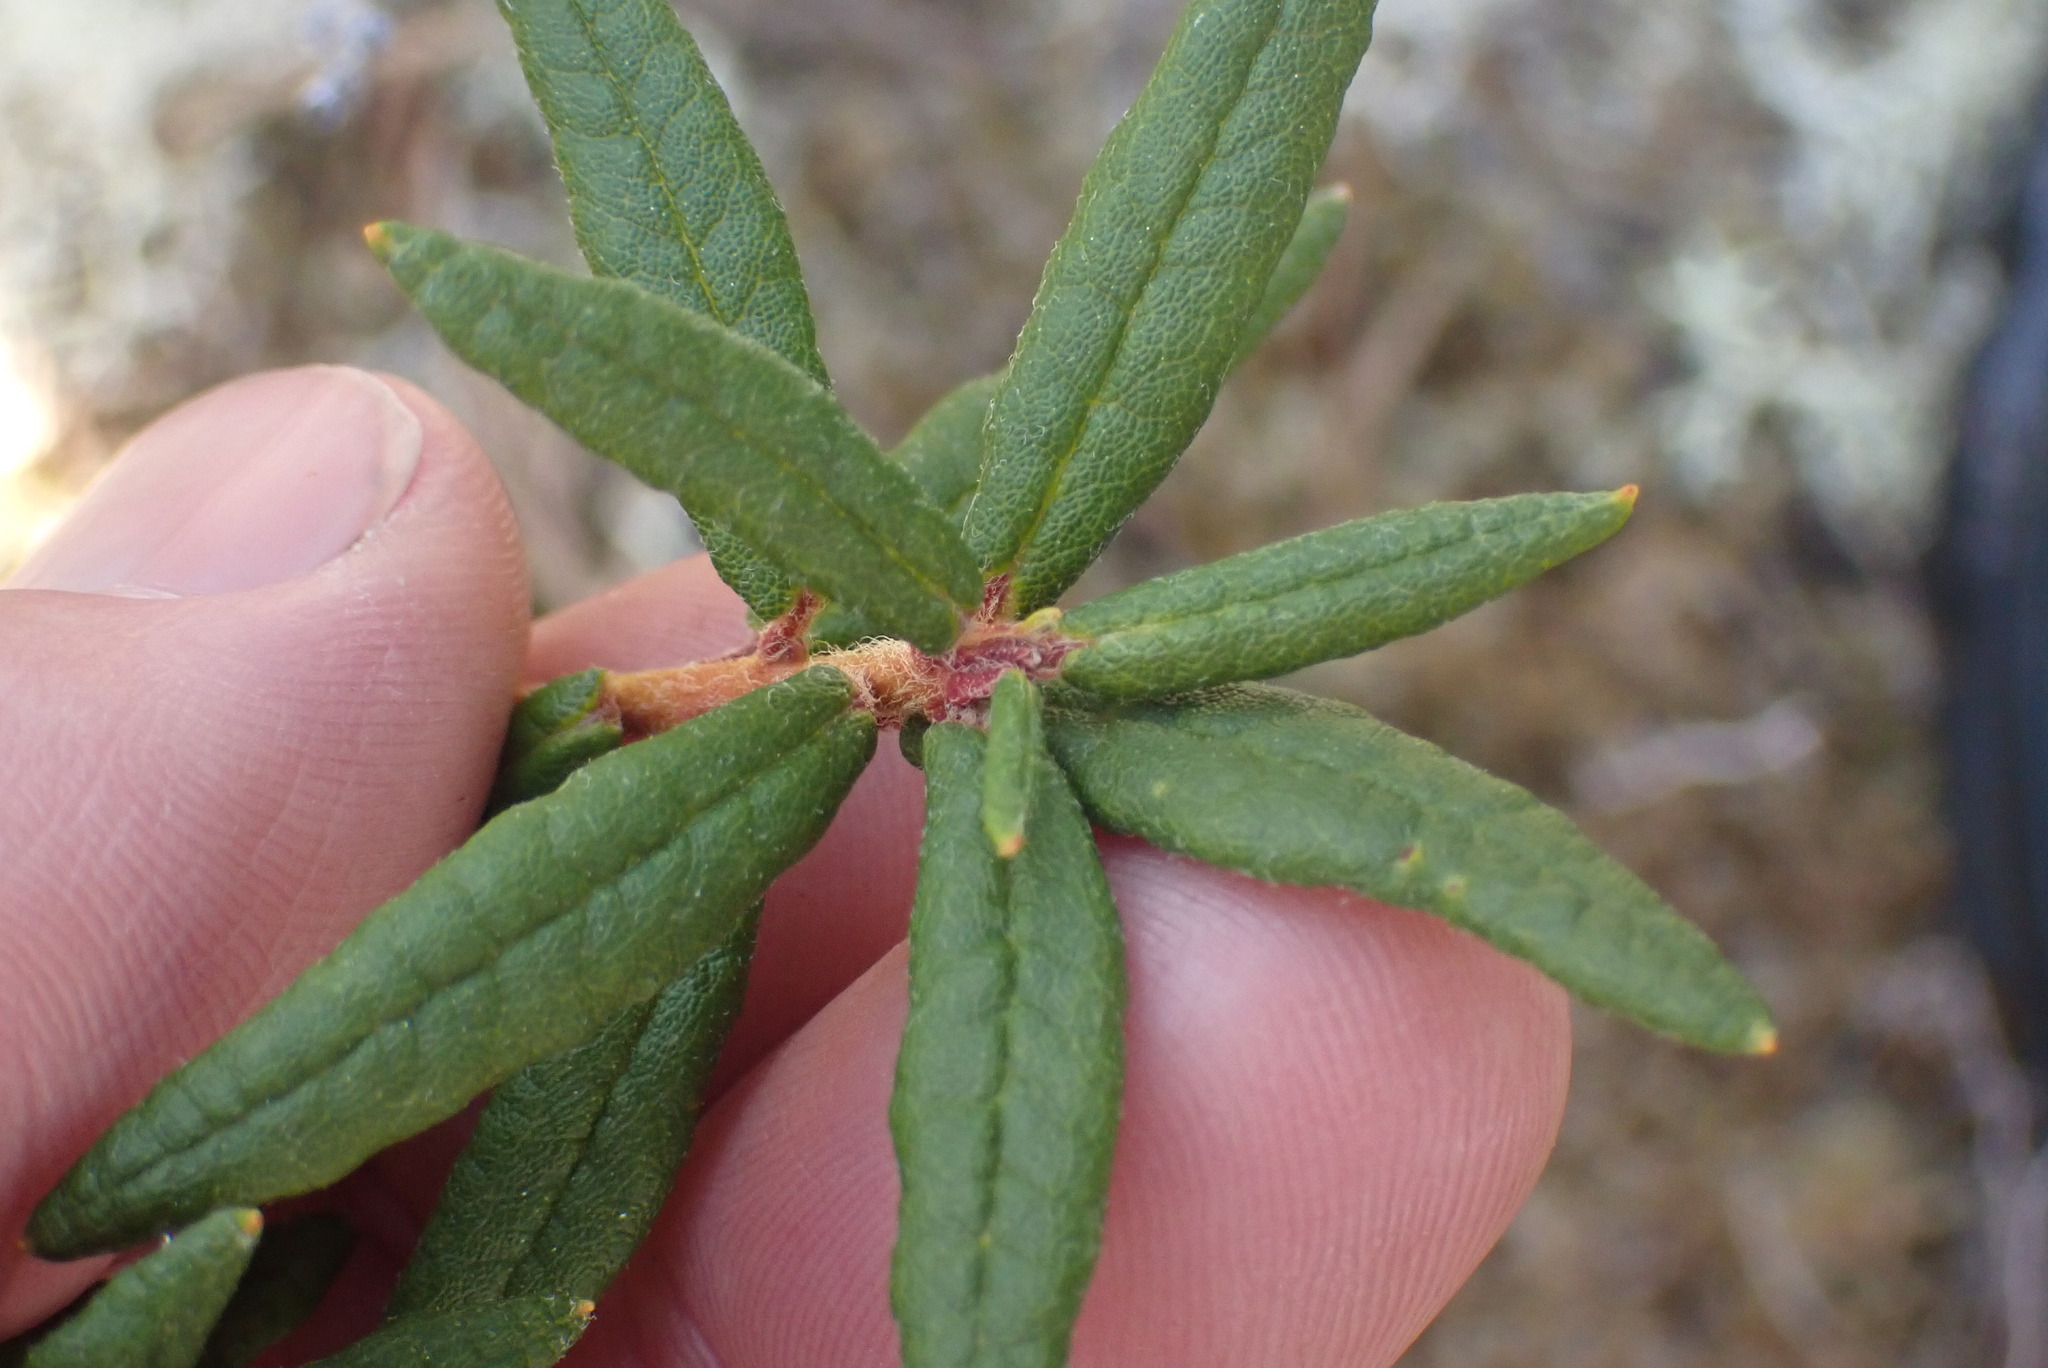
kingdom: Plantae
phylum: Tracheophyta
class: Magnoliopsida
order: Ericales
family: Ericaceae
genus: Rhododendron
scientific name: Rhododendron groenlandicum
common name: Bog labrador tea
